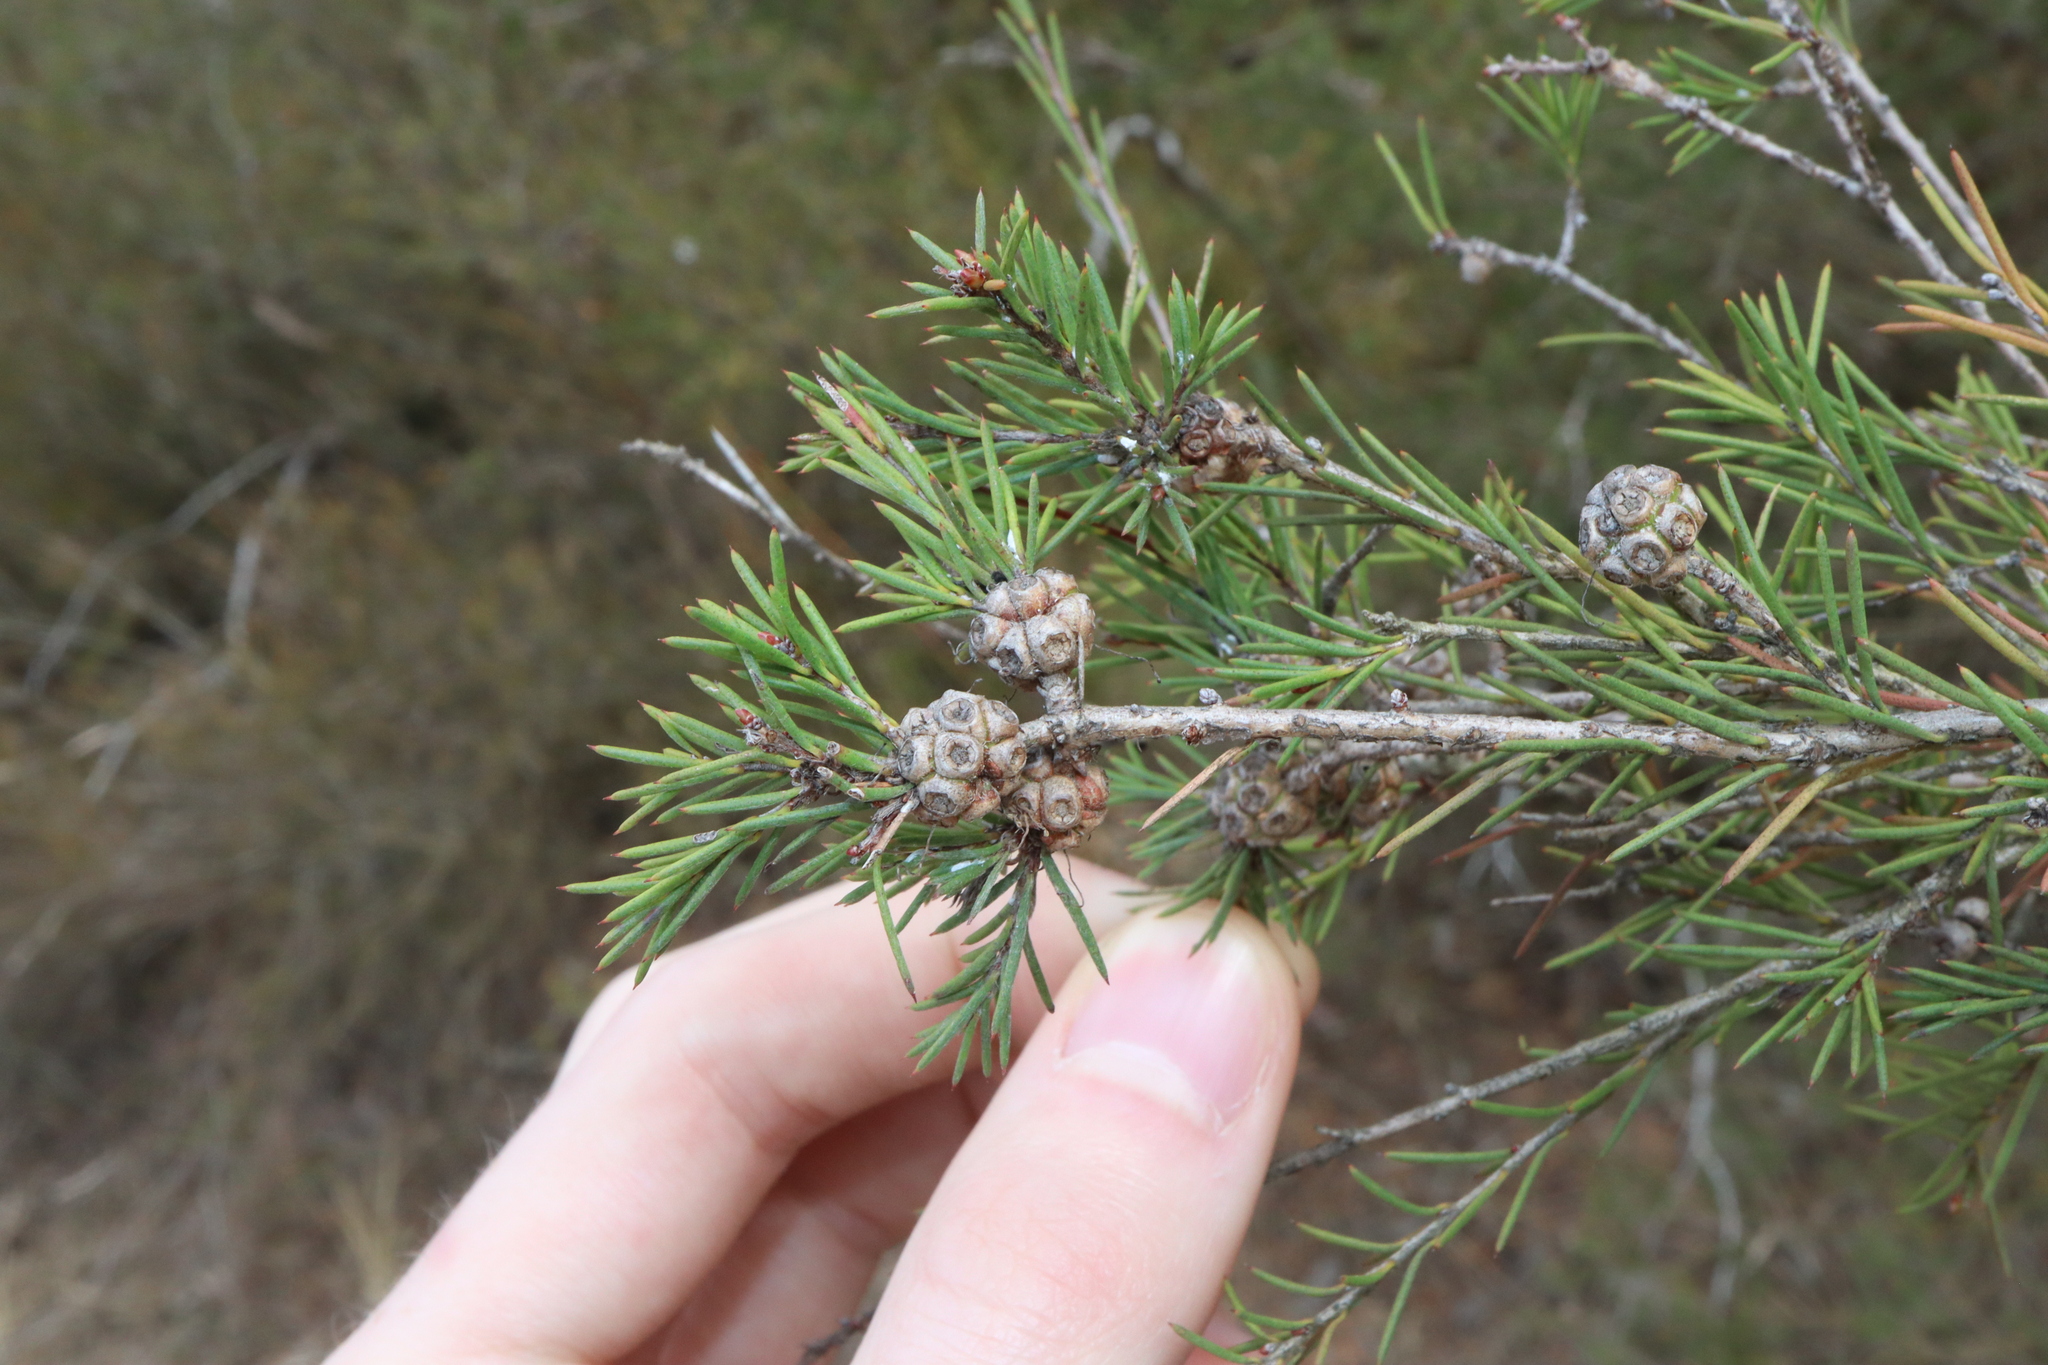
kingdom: Plantae
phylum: Tracheophyta
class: Magnoliopsida
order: Myrtales
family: Myrtaceae
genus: Melaleuca
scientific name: Melaleuca nodosa
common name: Prickly-leaf paperbark
